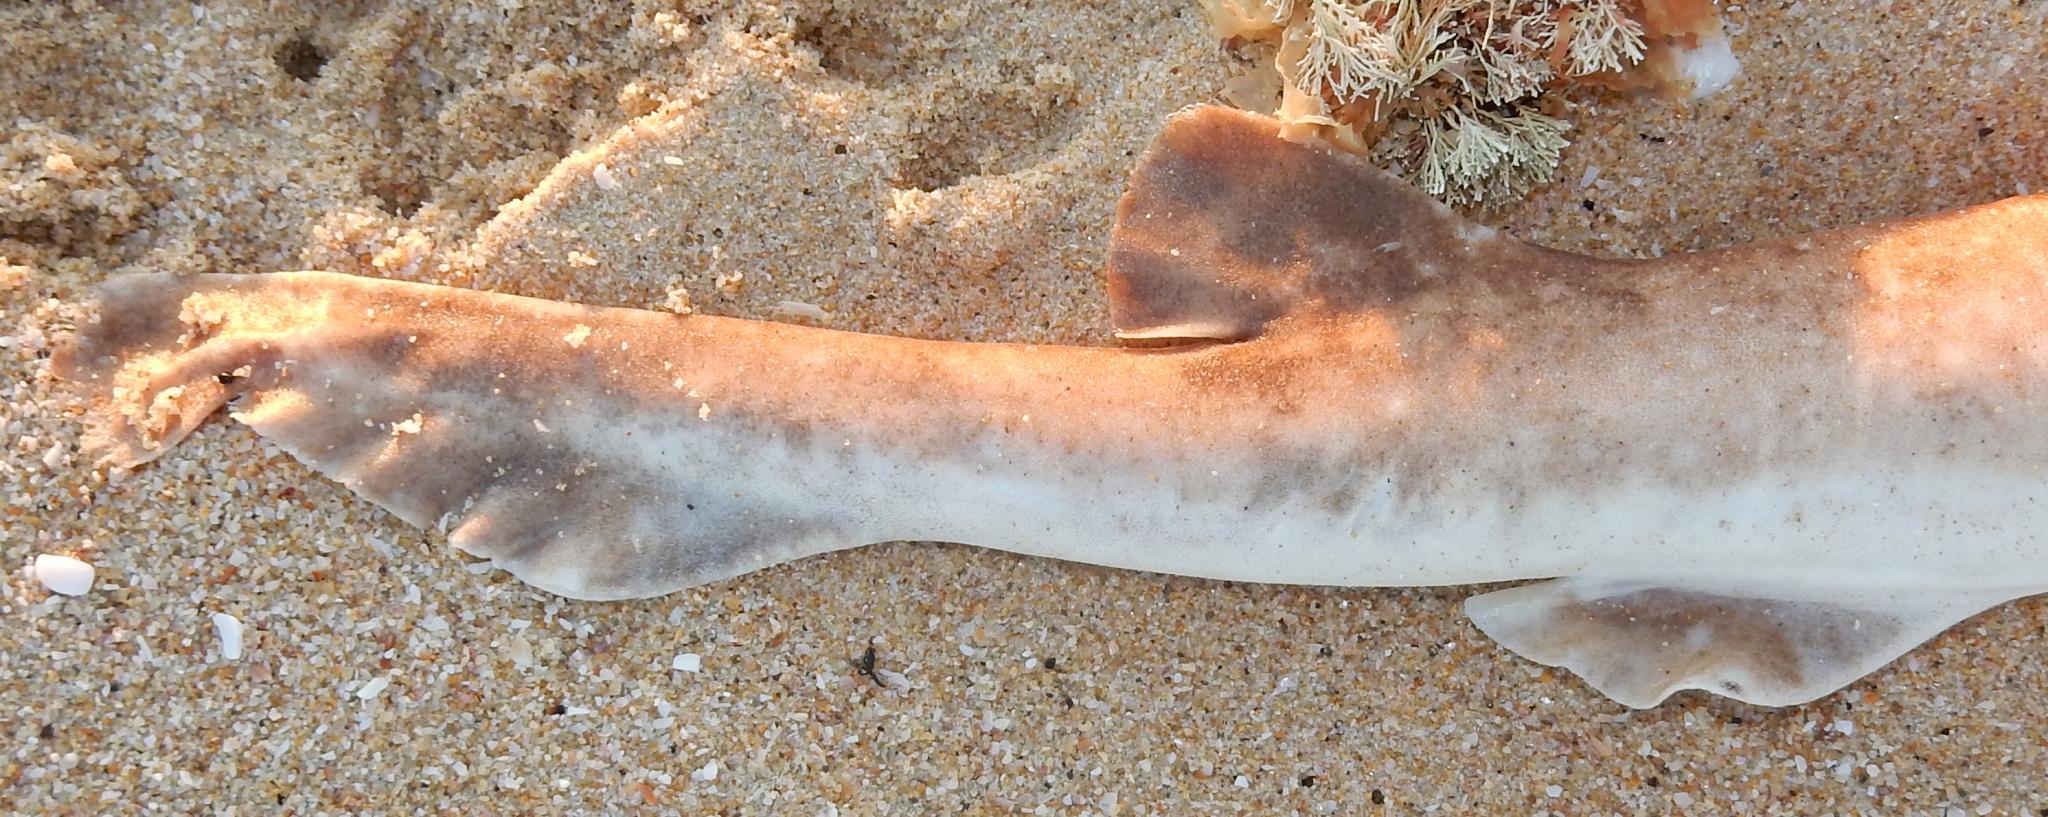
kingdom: Animalia
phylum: Chordata
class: Elasmobranchii
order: Carcharhiniformes
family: Scyliorhinidae
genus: Haploblepharus
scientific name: Haploblepharus fuscus
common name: Brown shyshark
